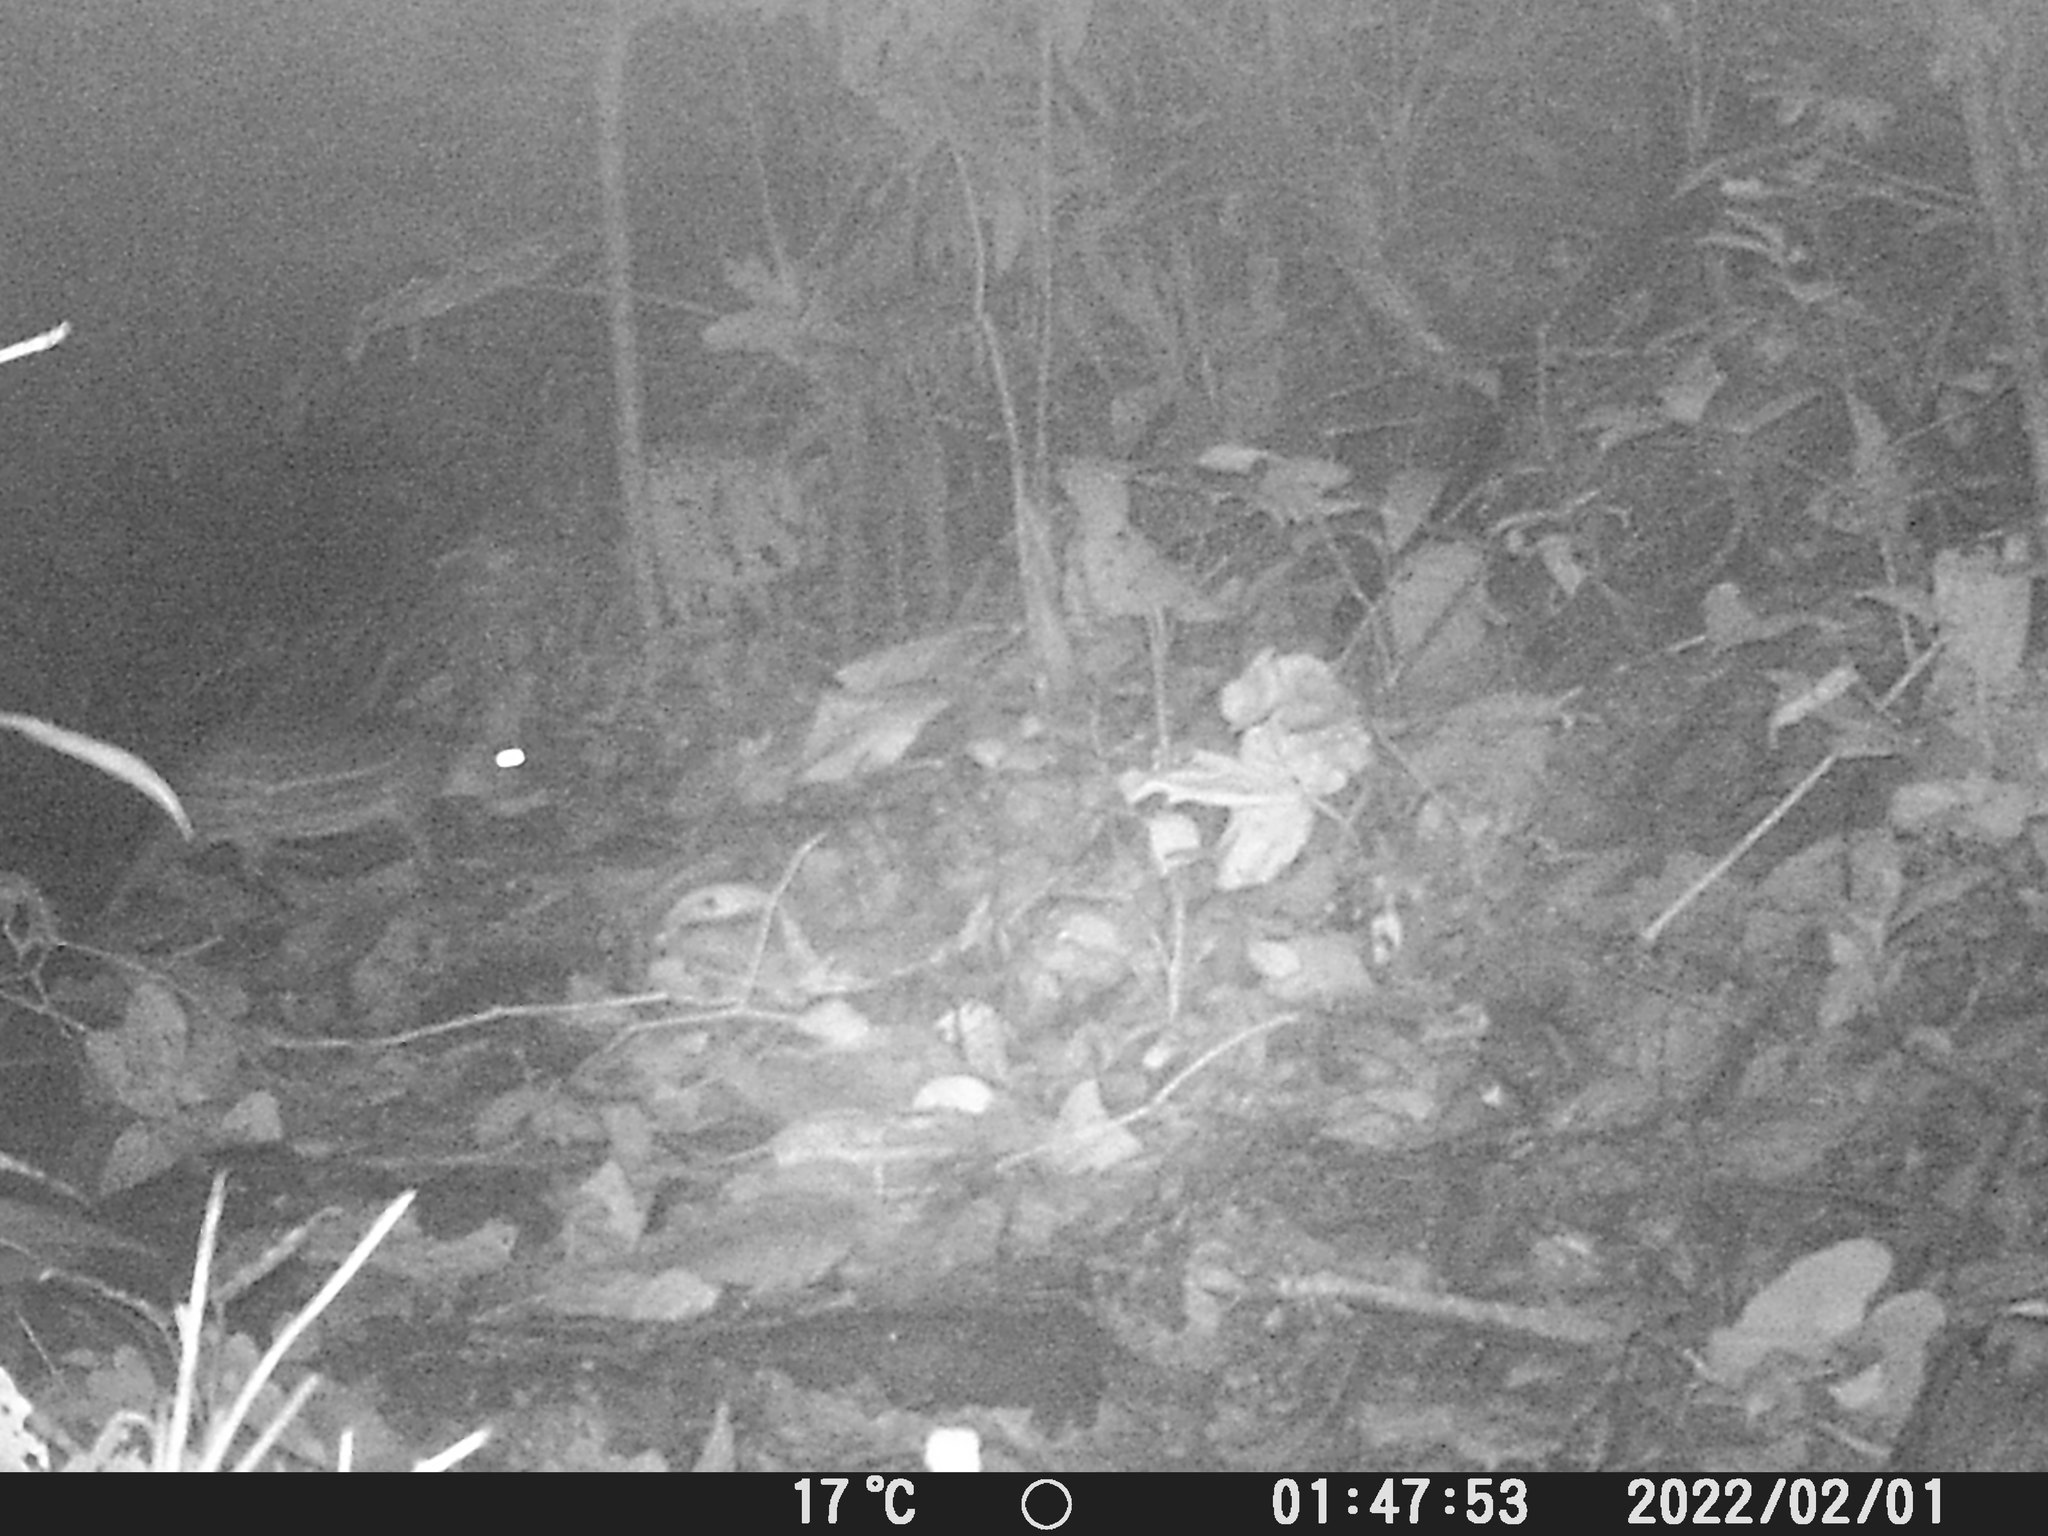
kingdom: Animalia
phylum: Chordata
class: Mammalia
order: Rodentia
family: Cuniculidae
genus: Cuniculus
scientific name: Cuniculus paca
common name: Lowland paca
